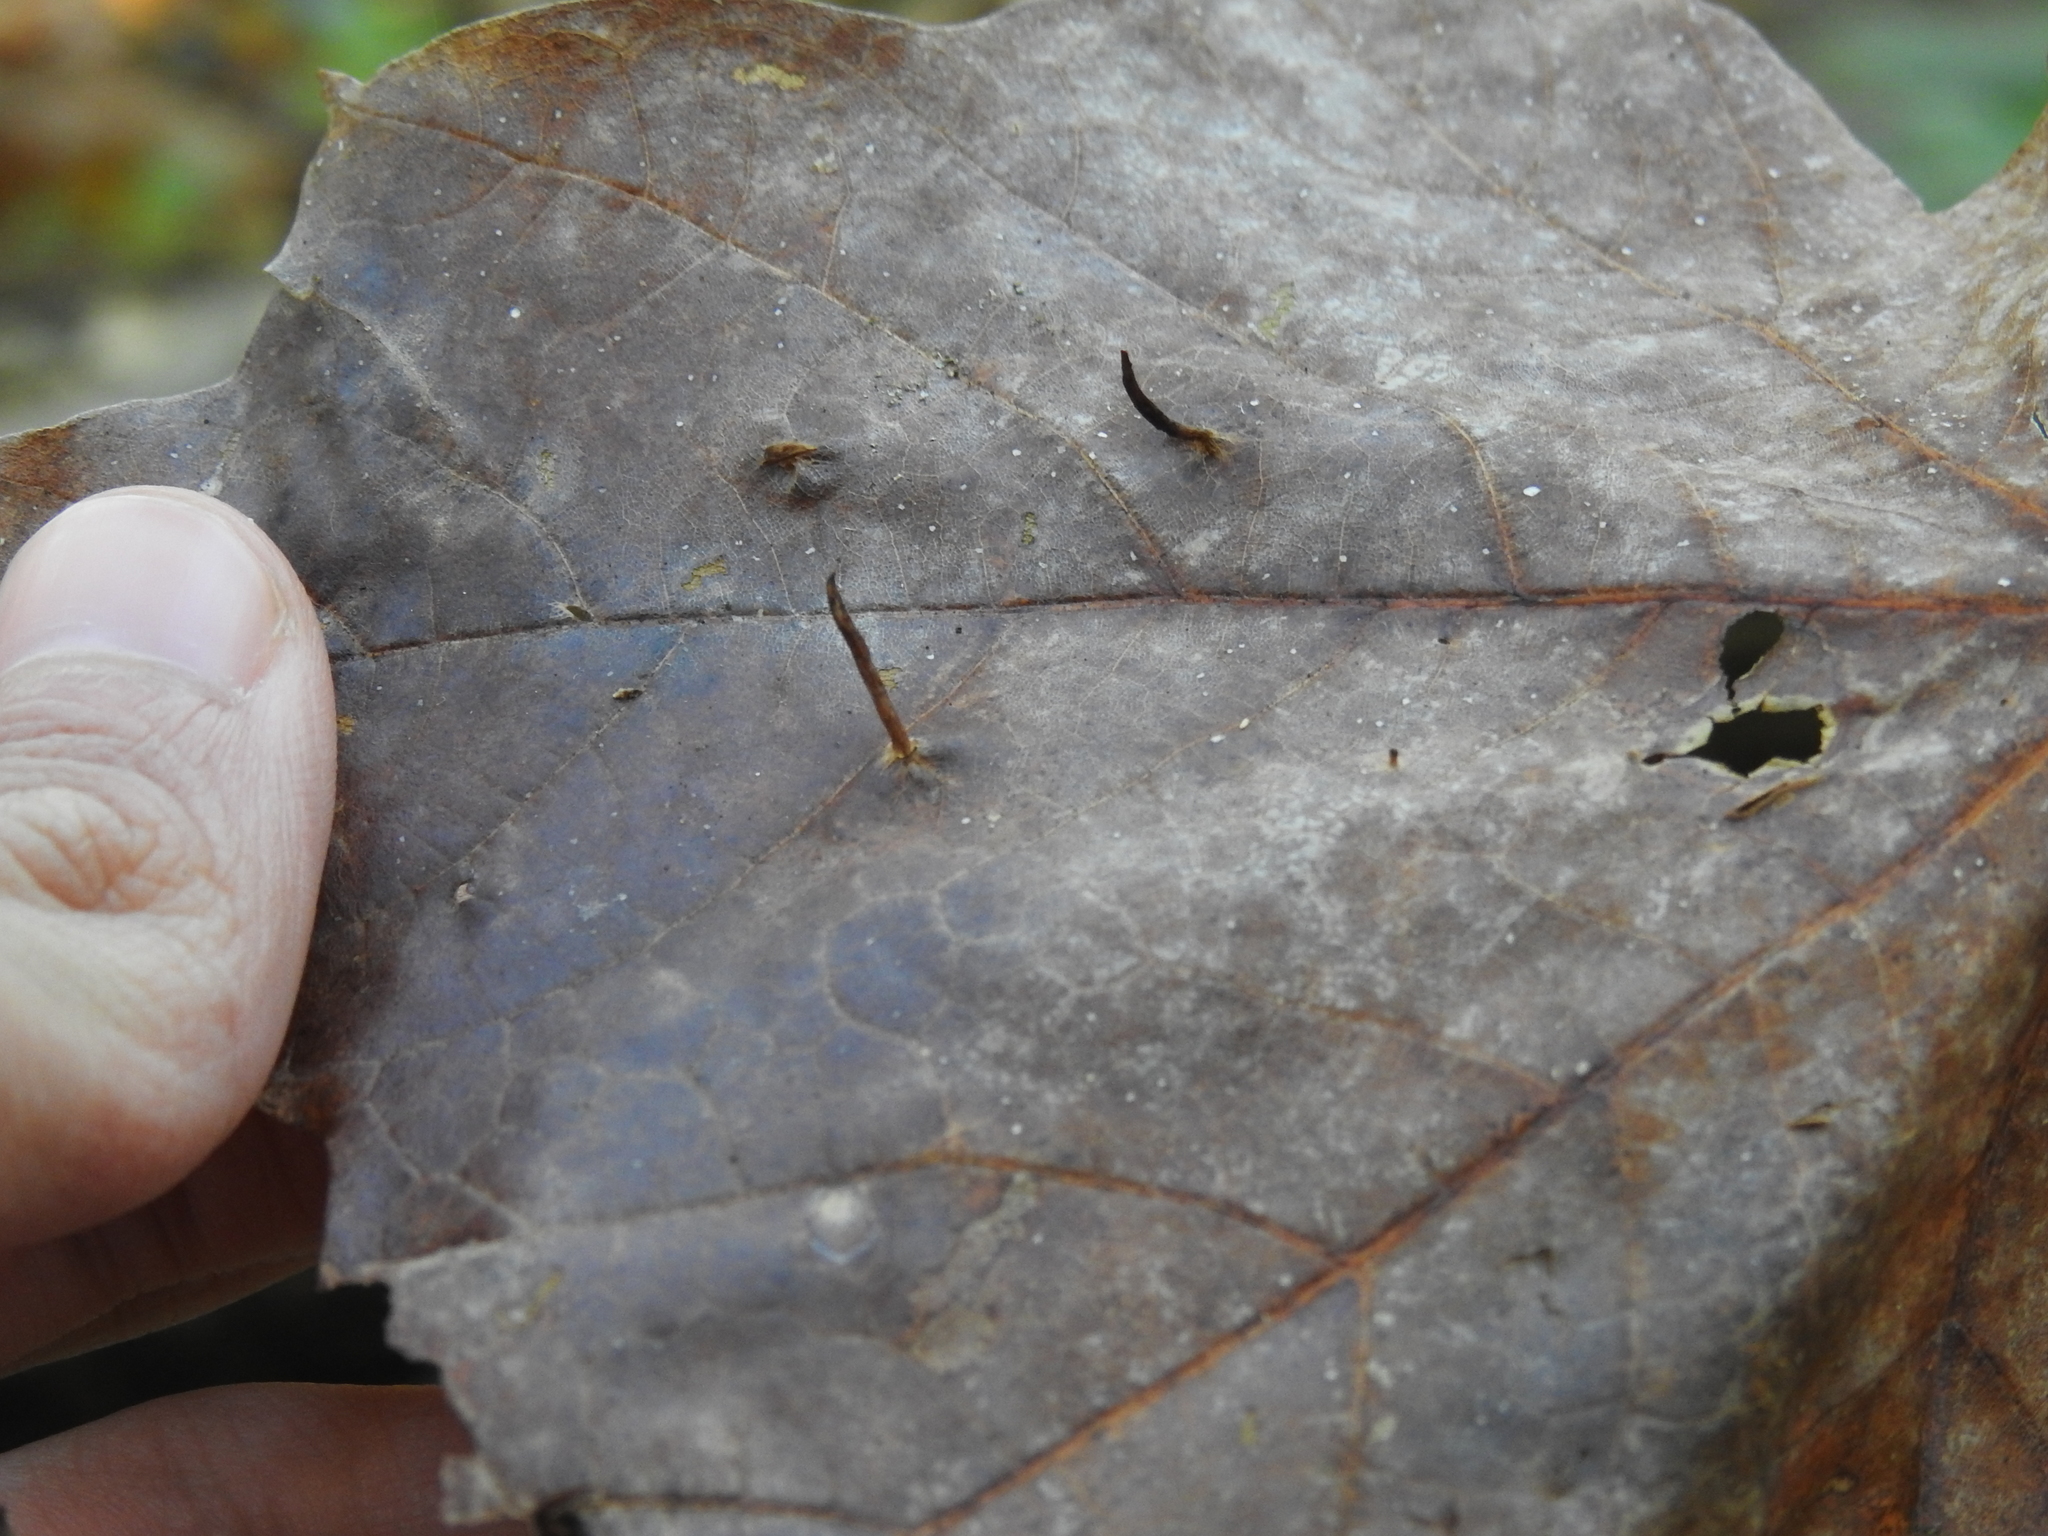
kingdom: Animalia
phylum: Arthropoda
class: Arachnida
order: Trombidiformes
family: Eriophyidae
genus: Vasates
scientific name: Vasates aceriscrumena
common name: Maple spindle gall mite
